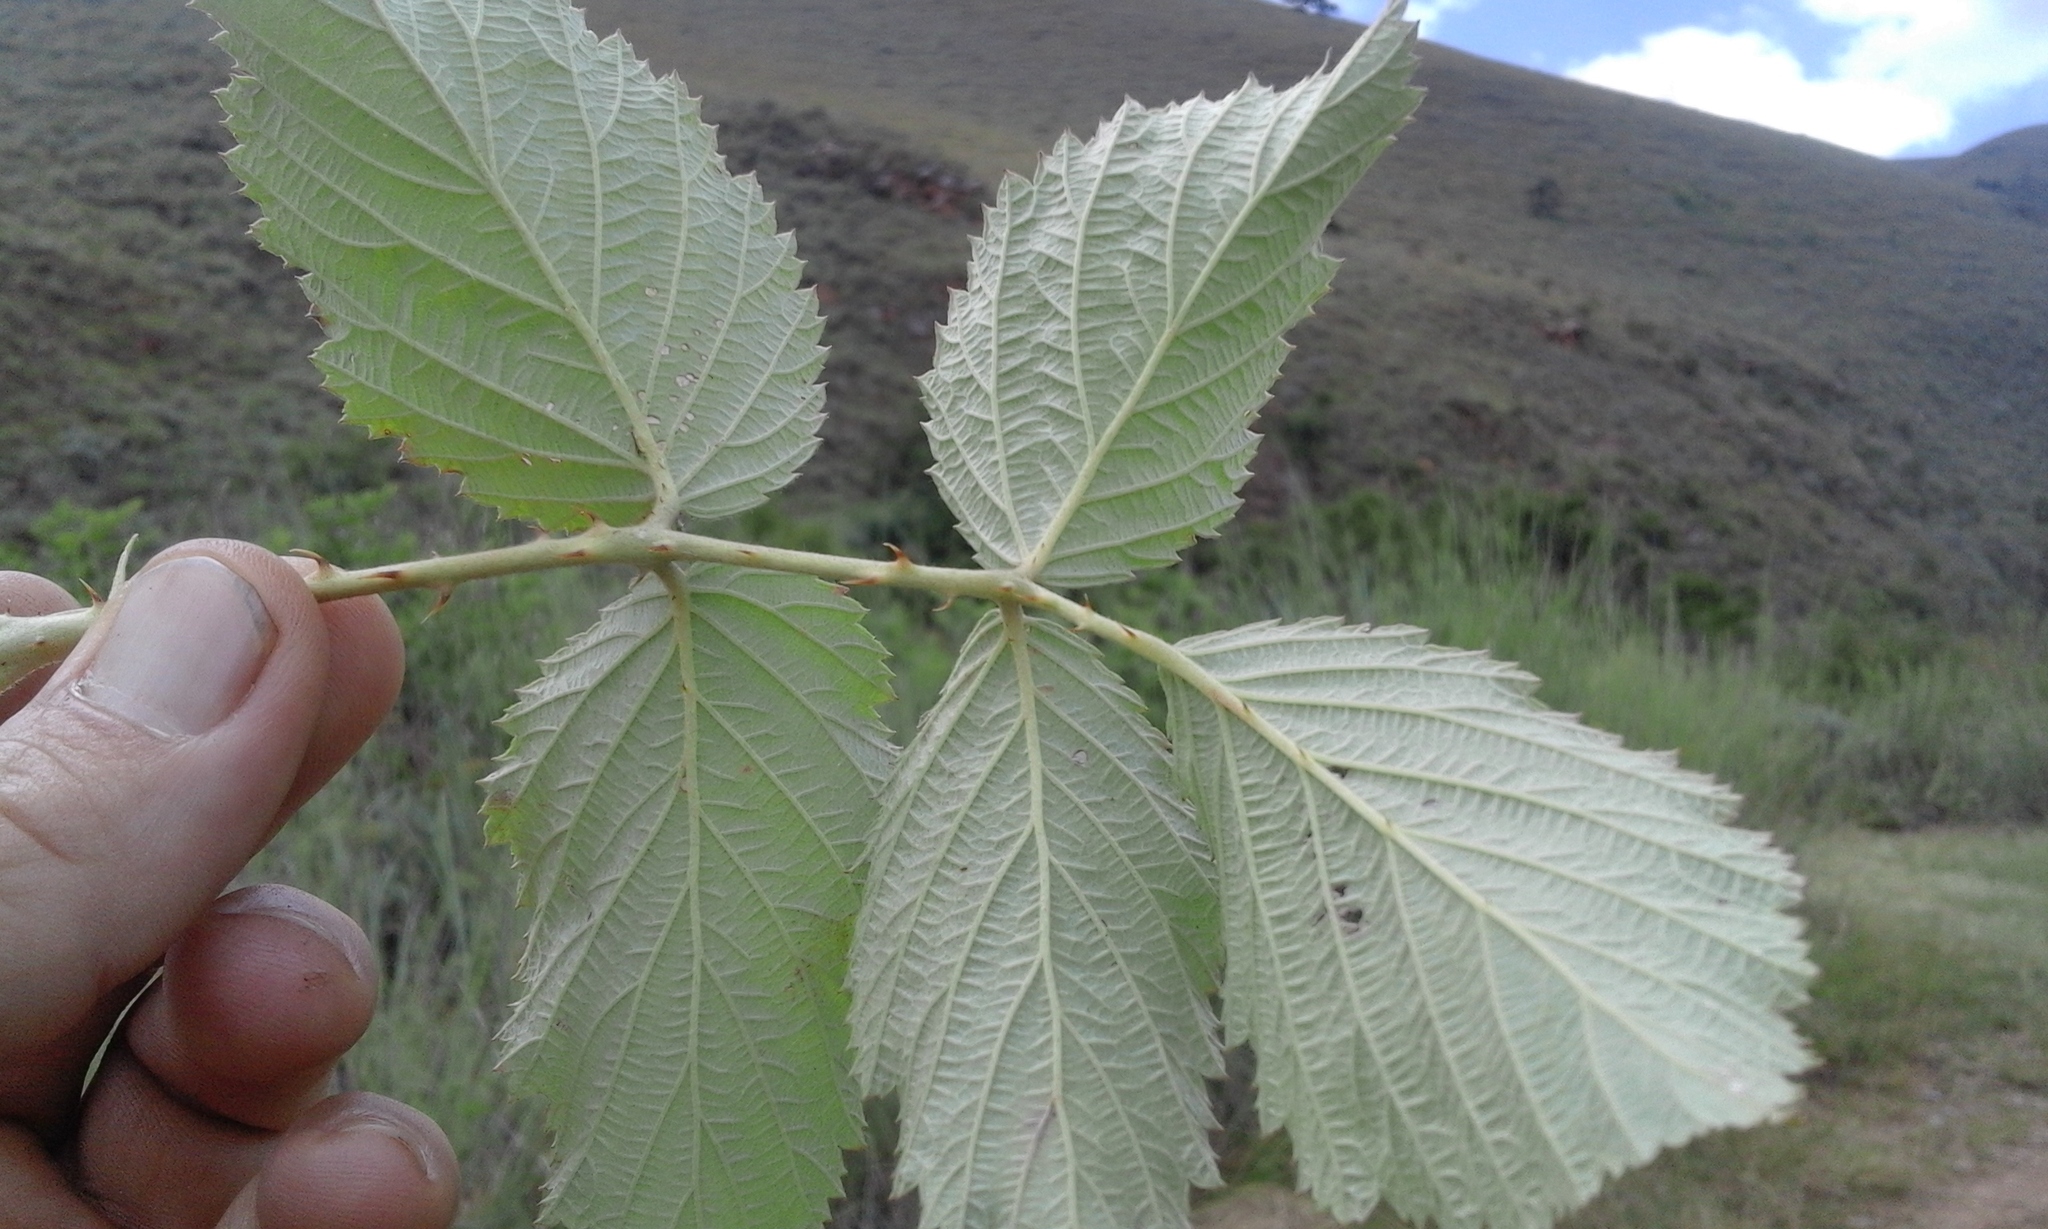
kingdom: Plantae
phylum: Tracheophyta
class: Magnoliopsida
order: Rosales
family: Rosaceae
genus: Rubus
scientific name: Rubus rigidus
